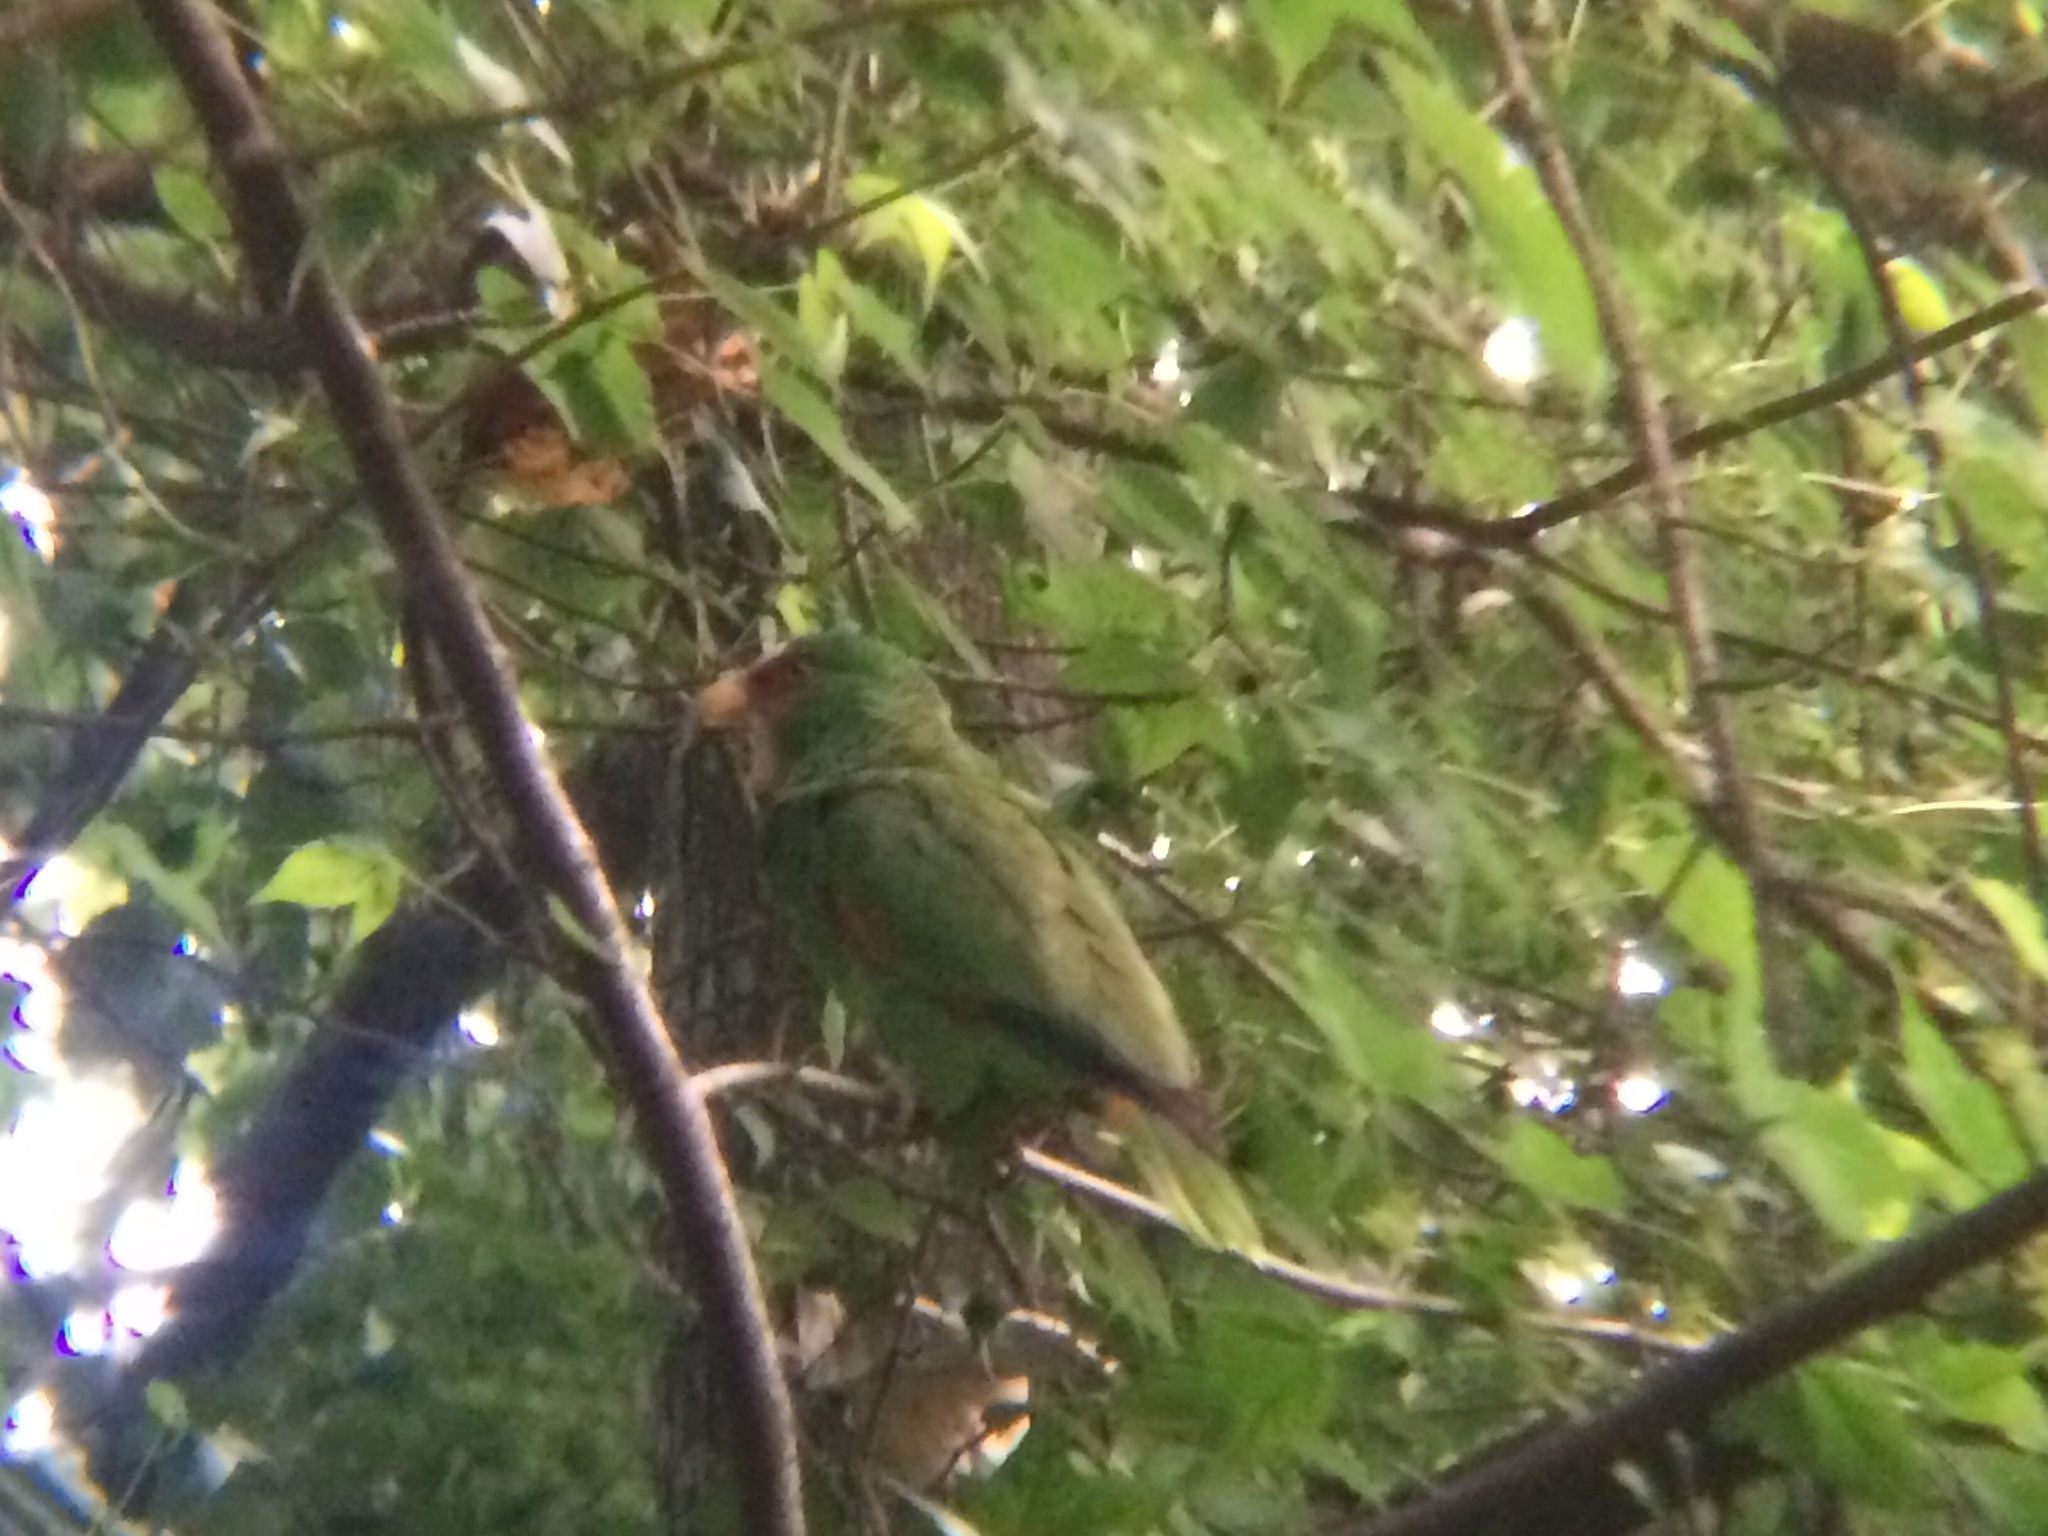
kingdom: Animalia
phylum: Chordata
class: Aves
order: Psittaciformes
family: Psittacidae
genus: Amazona
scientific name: Amazona albifrons
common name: White-fronted amazon
